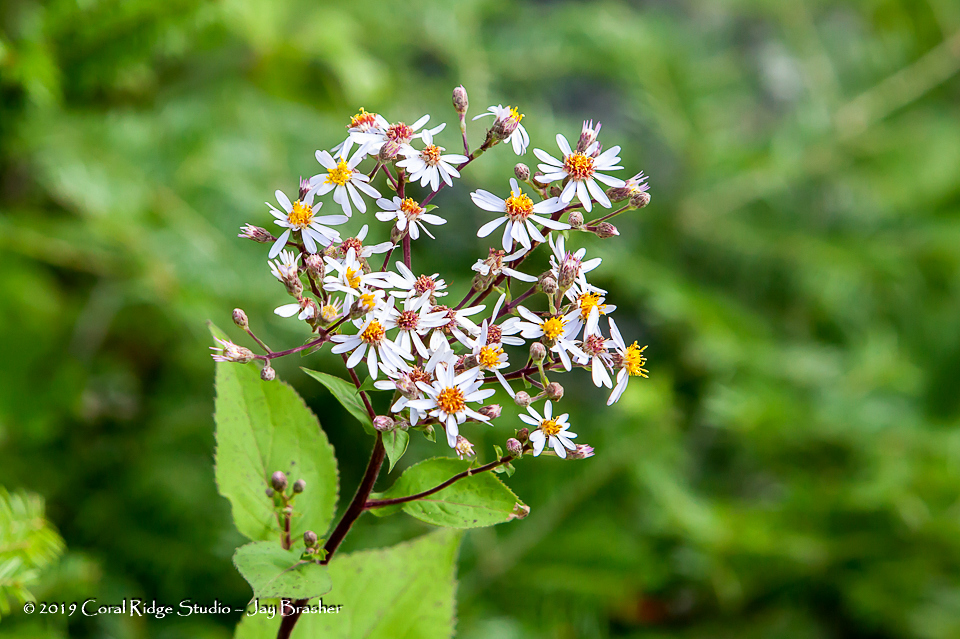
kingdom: Plantae
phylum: Tracheophyta
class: Magnoliopsida
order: Asterales
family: Asteraceae
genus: Eurybia
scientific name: Eurybia macrophylla
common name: Big-leaved aster
